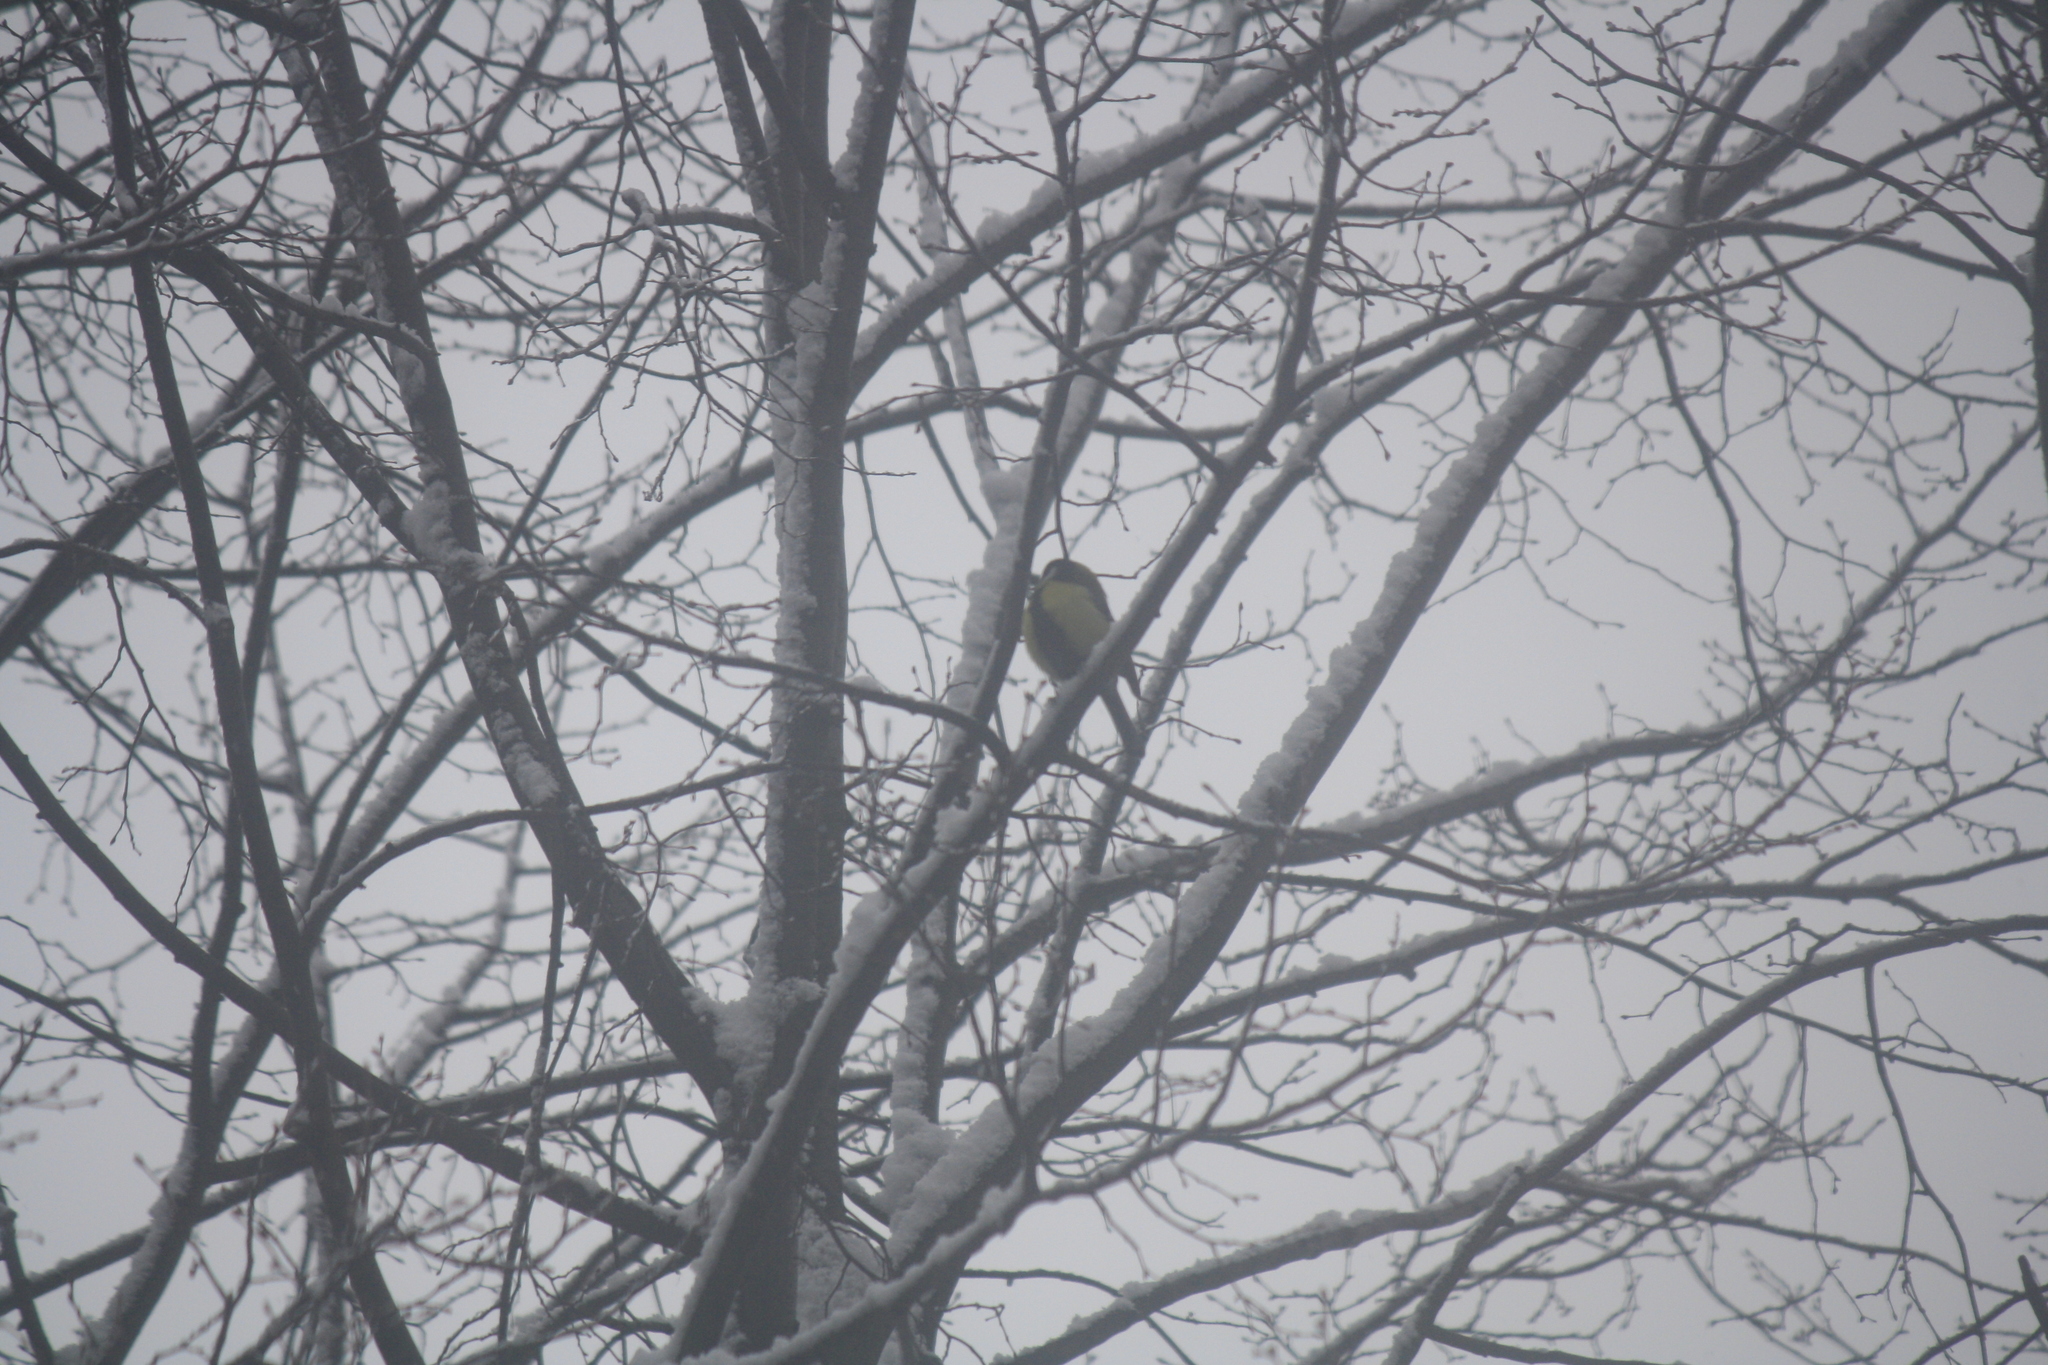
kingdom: Animalia
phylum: Chordata
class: Aves
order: Passeriformes
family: Paridae
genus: Parus
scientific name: Parus major
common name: Great tit
